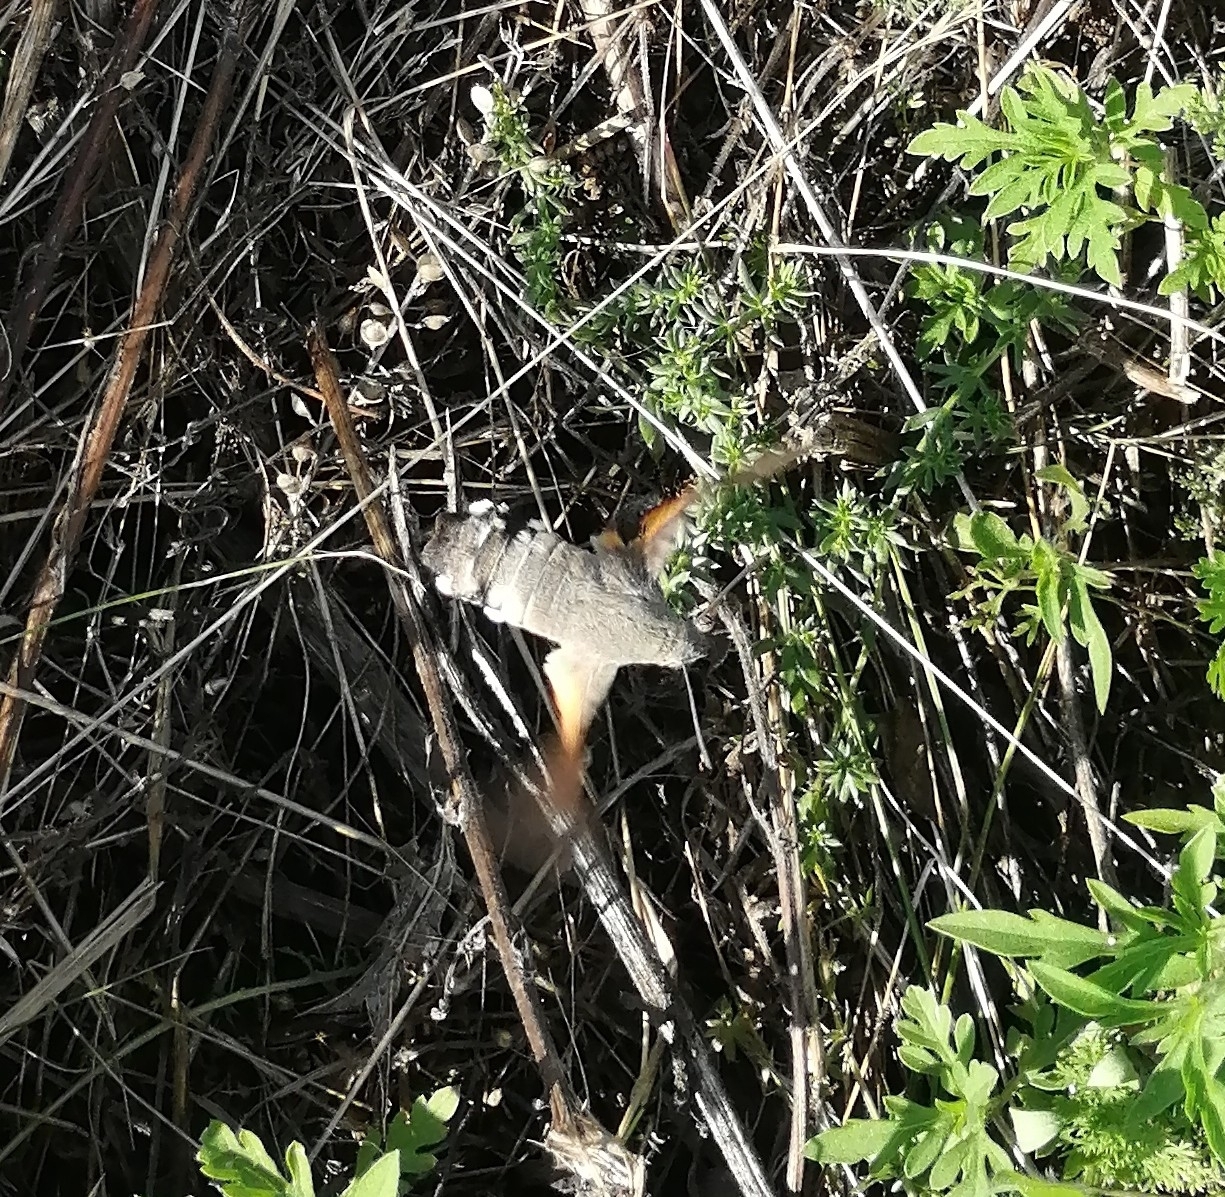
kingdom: Animalia
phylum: Arthropoda
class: Insecta
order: Lepidoptera
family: Sphingidae
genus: Macroglossum
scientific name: Macroglossum stellatarum
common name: Humming-bird hawk-moth
